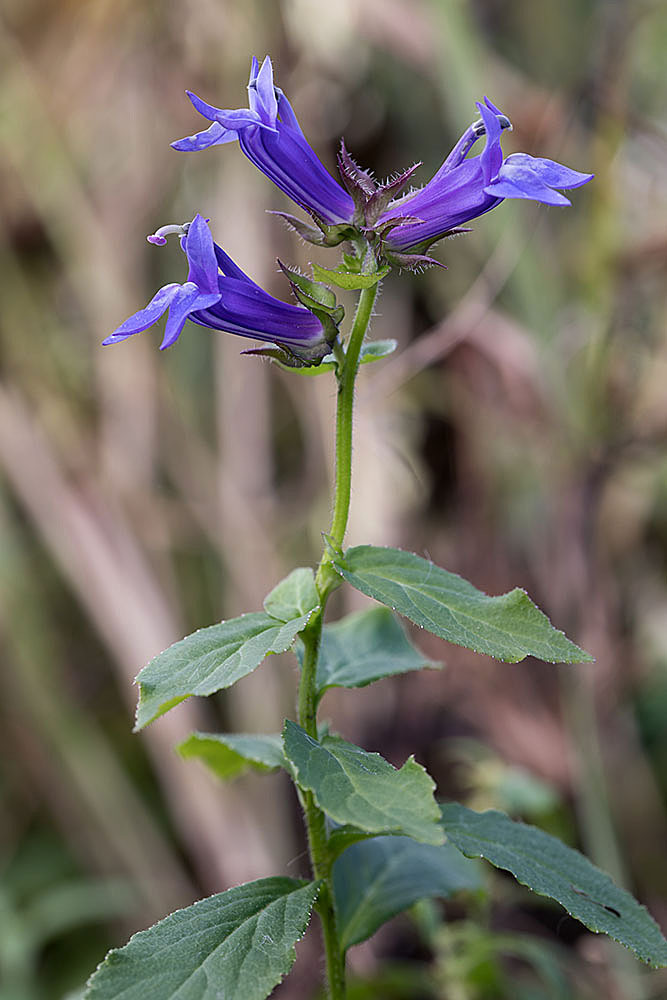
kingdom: Plantae
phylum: Tracheophyta
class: Magnoliopsida
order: Asterales
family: Campanulaceae
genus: Lobelia
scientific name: Lobelia siphilitica
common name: Great lobelia
